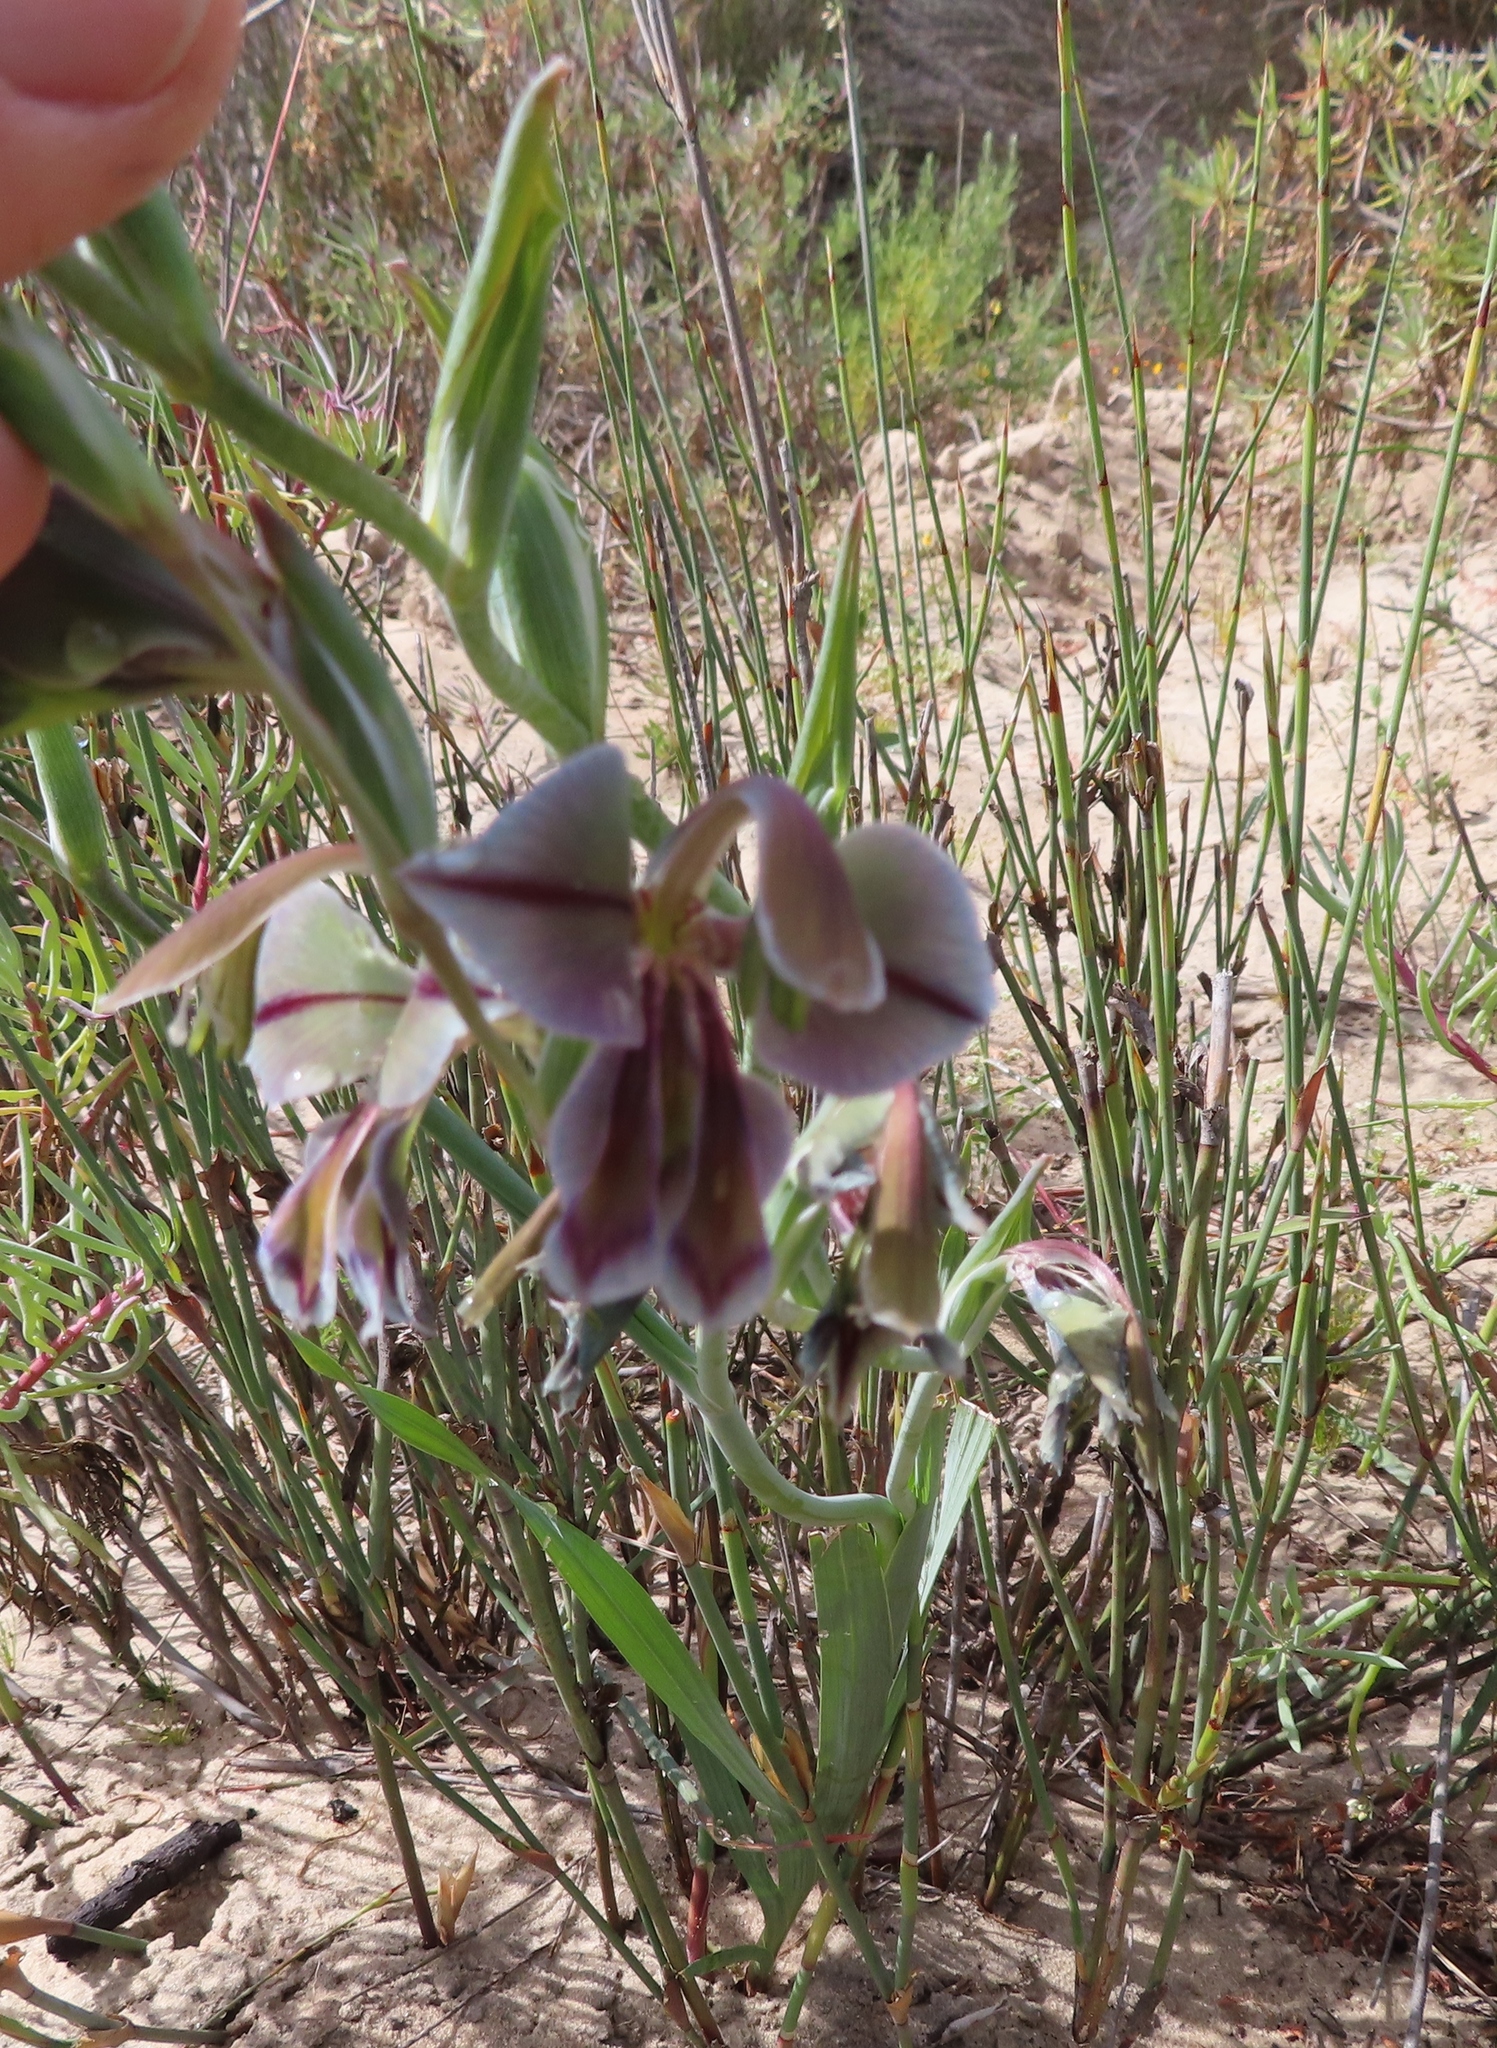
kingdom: Plantae
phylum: Tracheophyta
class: Liliopsida
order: Asparagales
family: Iridaceae
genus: Gladiolus
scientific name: Gladiolus orchidiflorus
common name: Gray kalkoentjie
